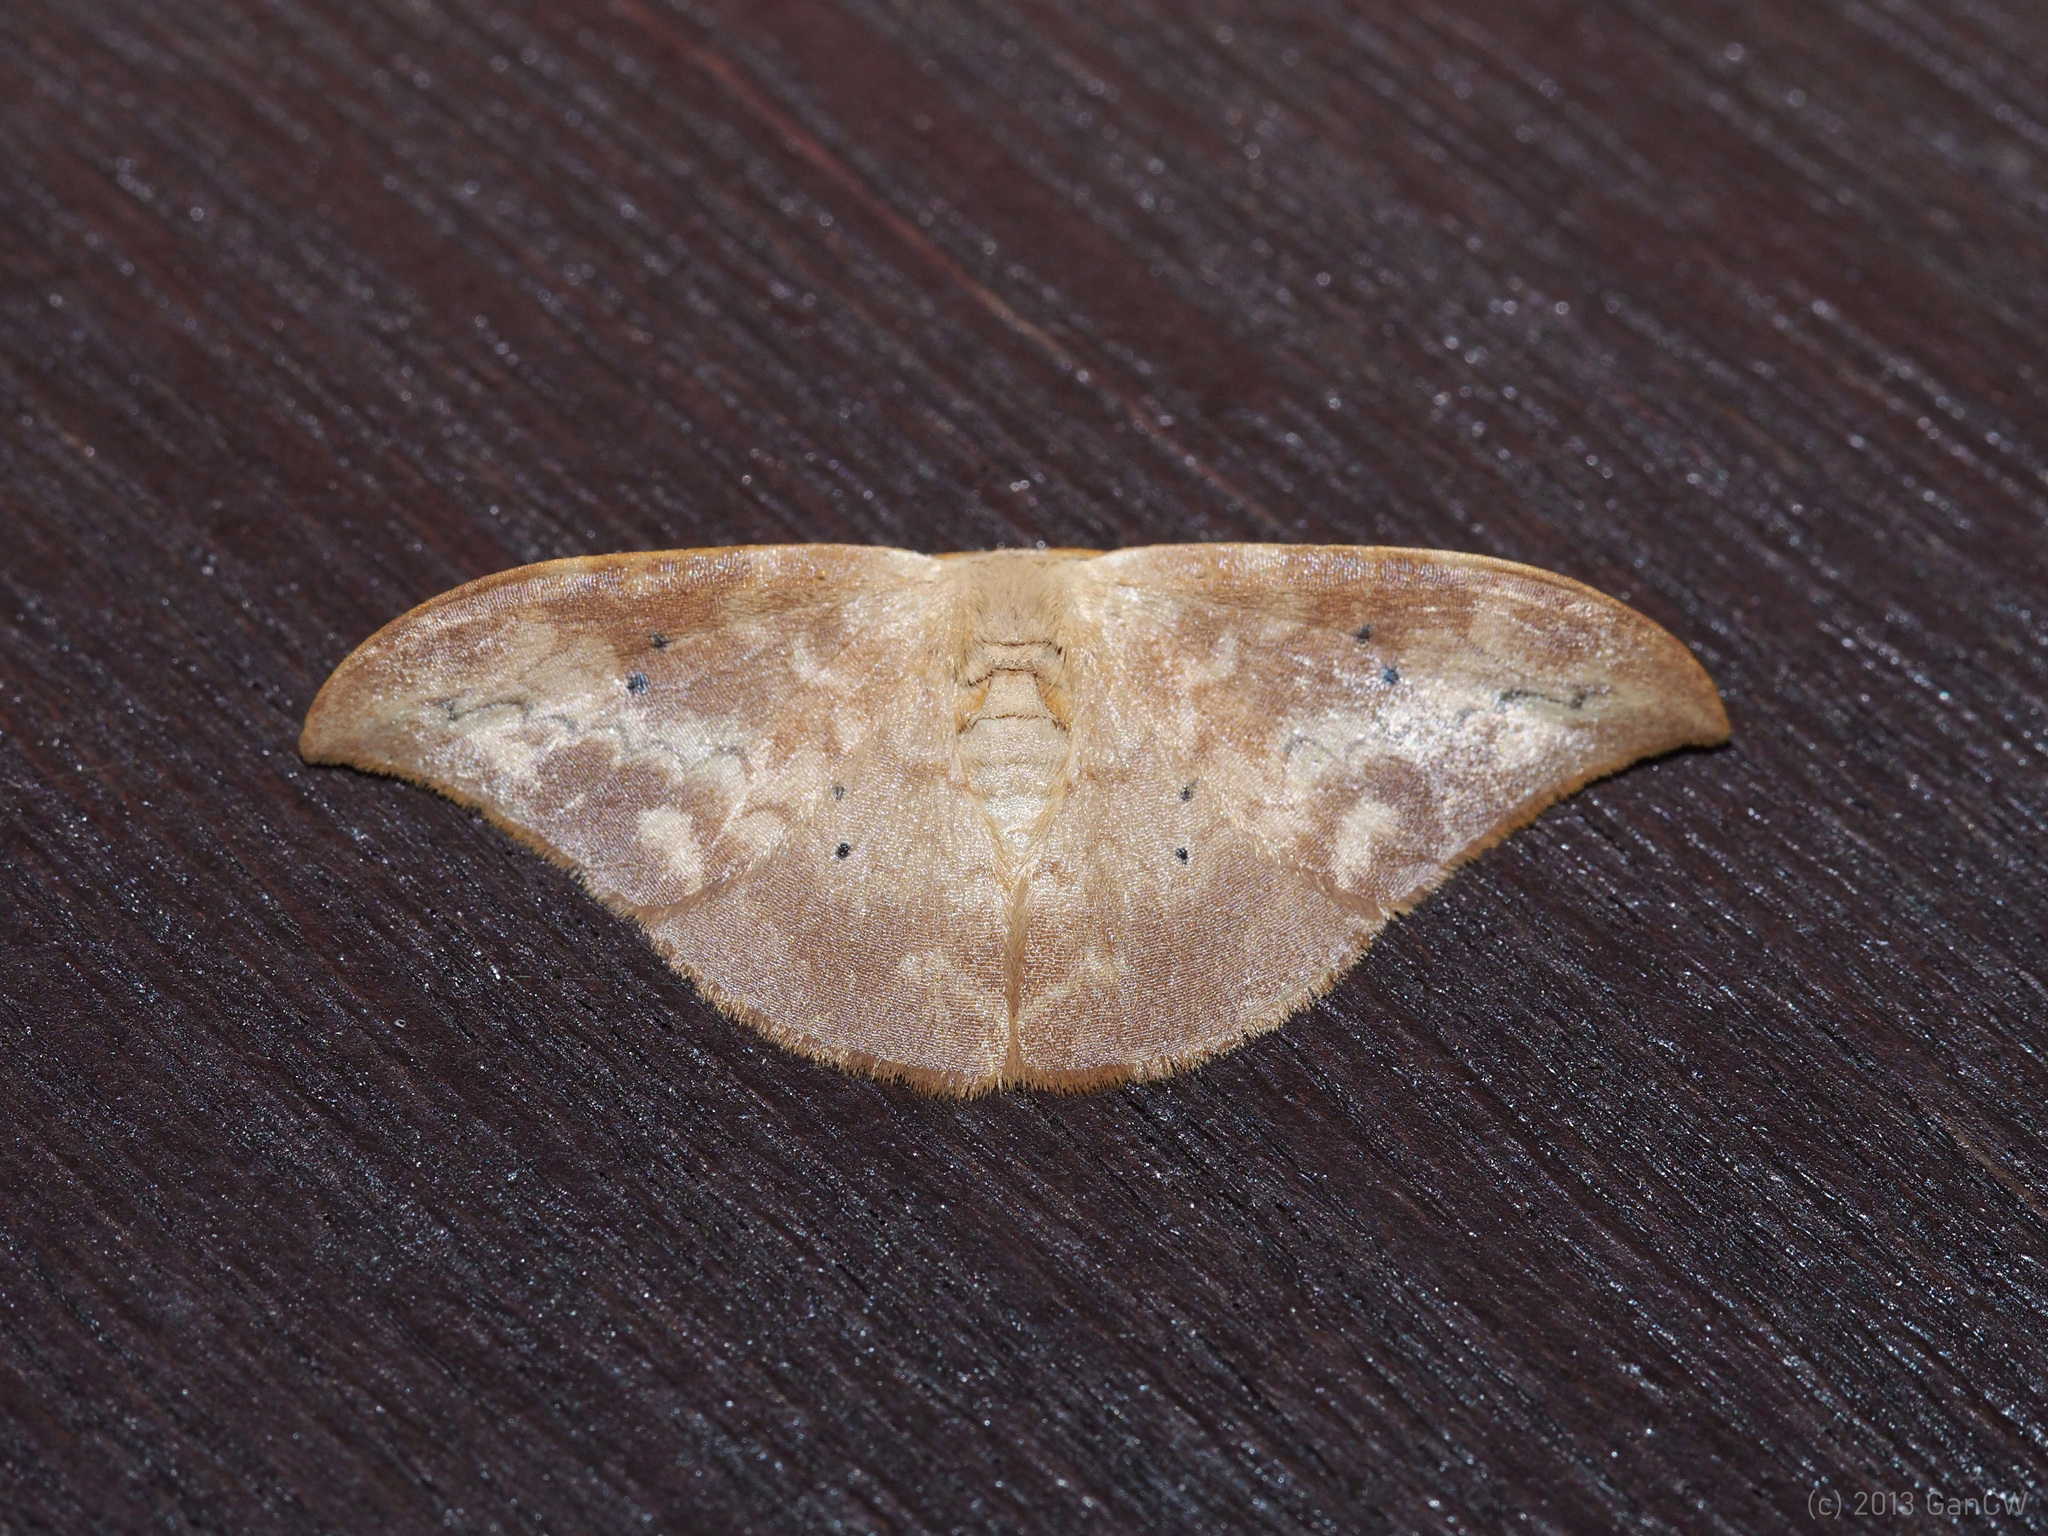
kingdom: Animalia
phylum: Arthropoda
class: Insecta
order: Lepidoptera
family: Drepanidae
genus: Strepsigonia
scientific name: Strepsigonia quadripunctata
